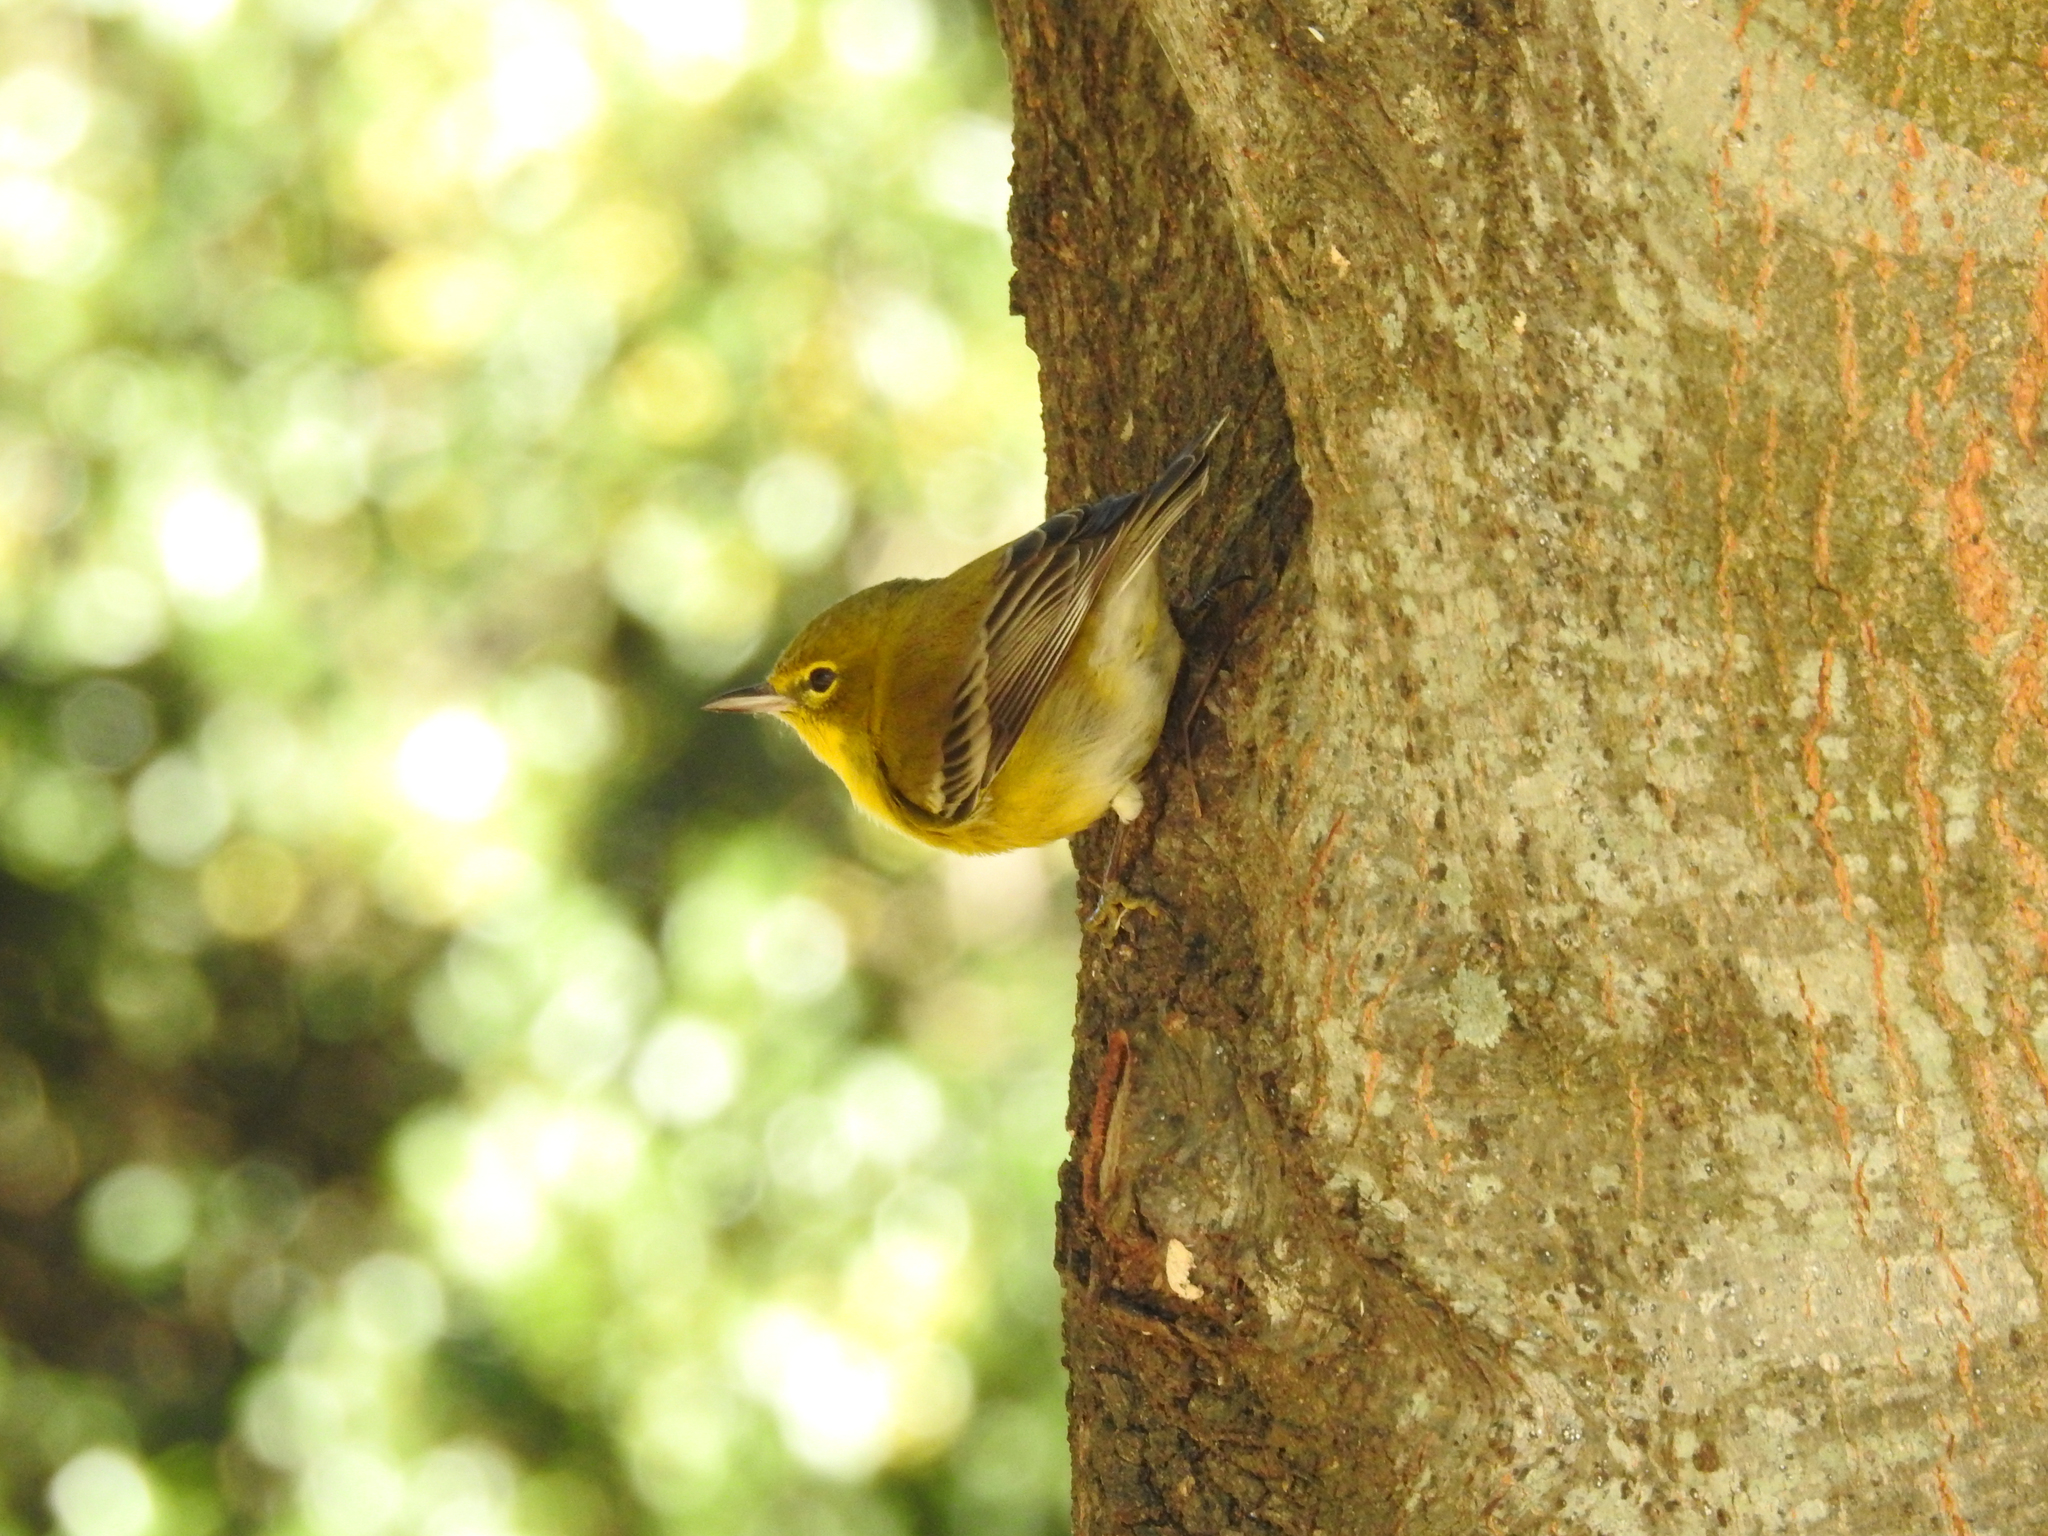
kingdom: Animalia
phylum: Chordata
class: Aves
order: Passeriformes
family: Parulidae
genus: Setophaga
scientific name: Setophaga pinus
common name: Pine warbler
